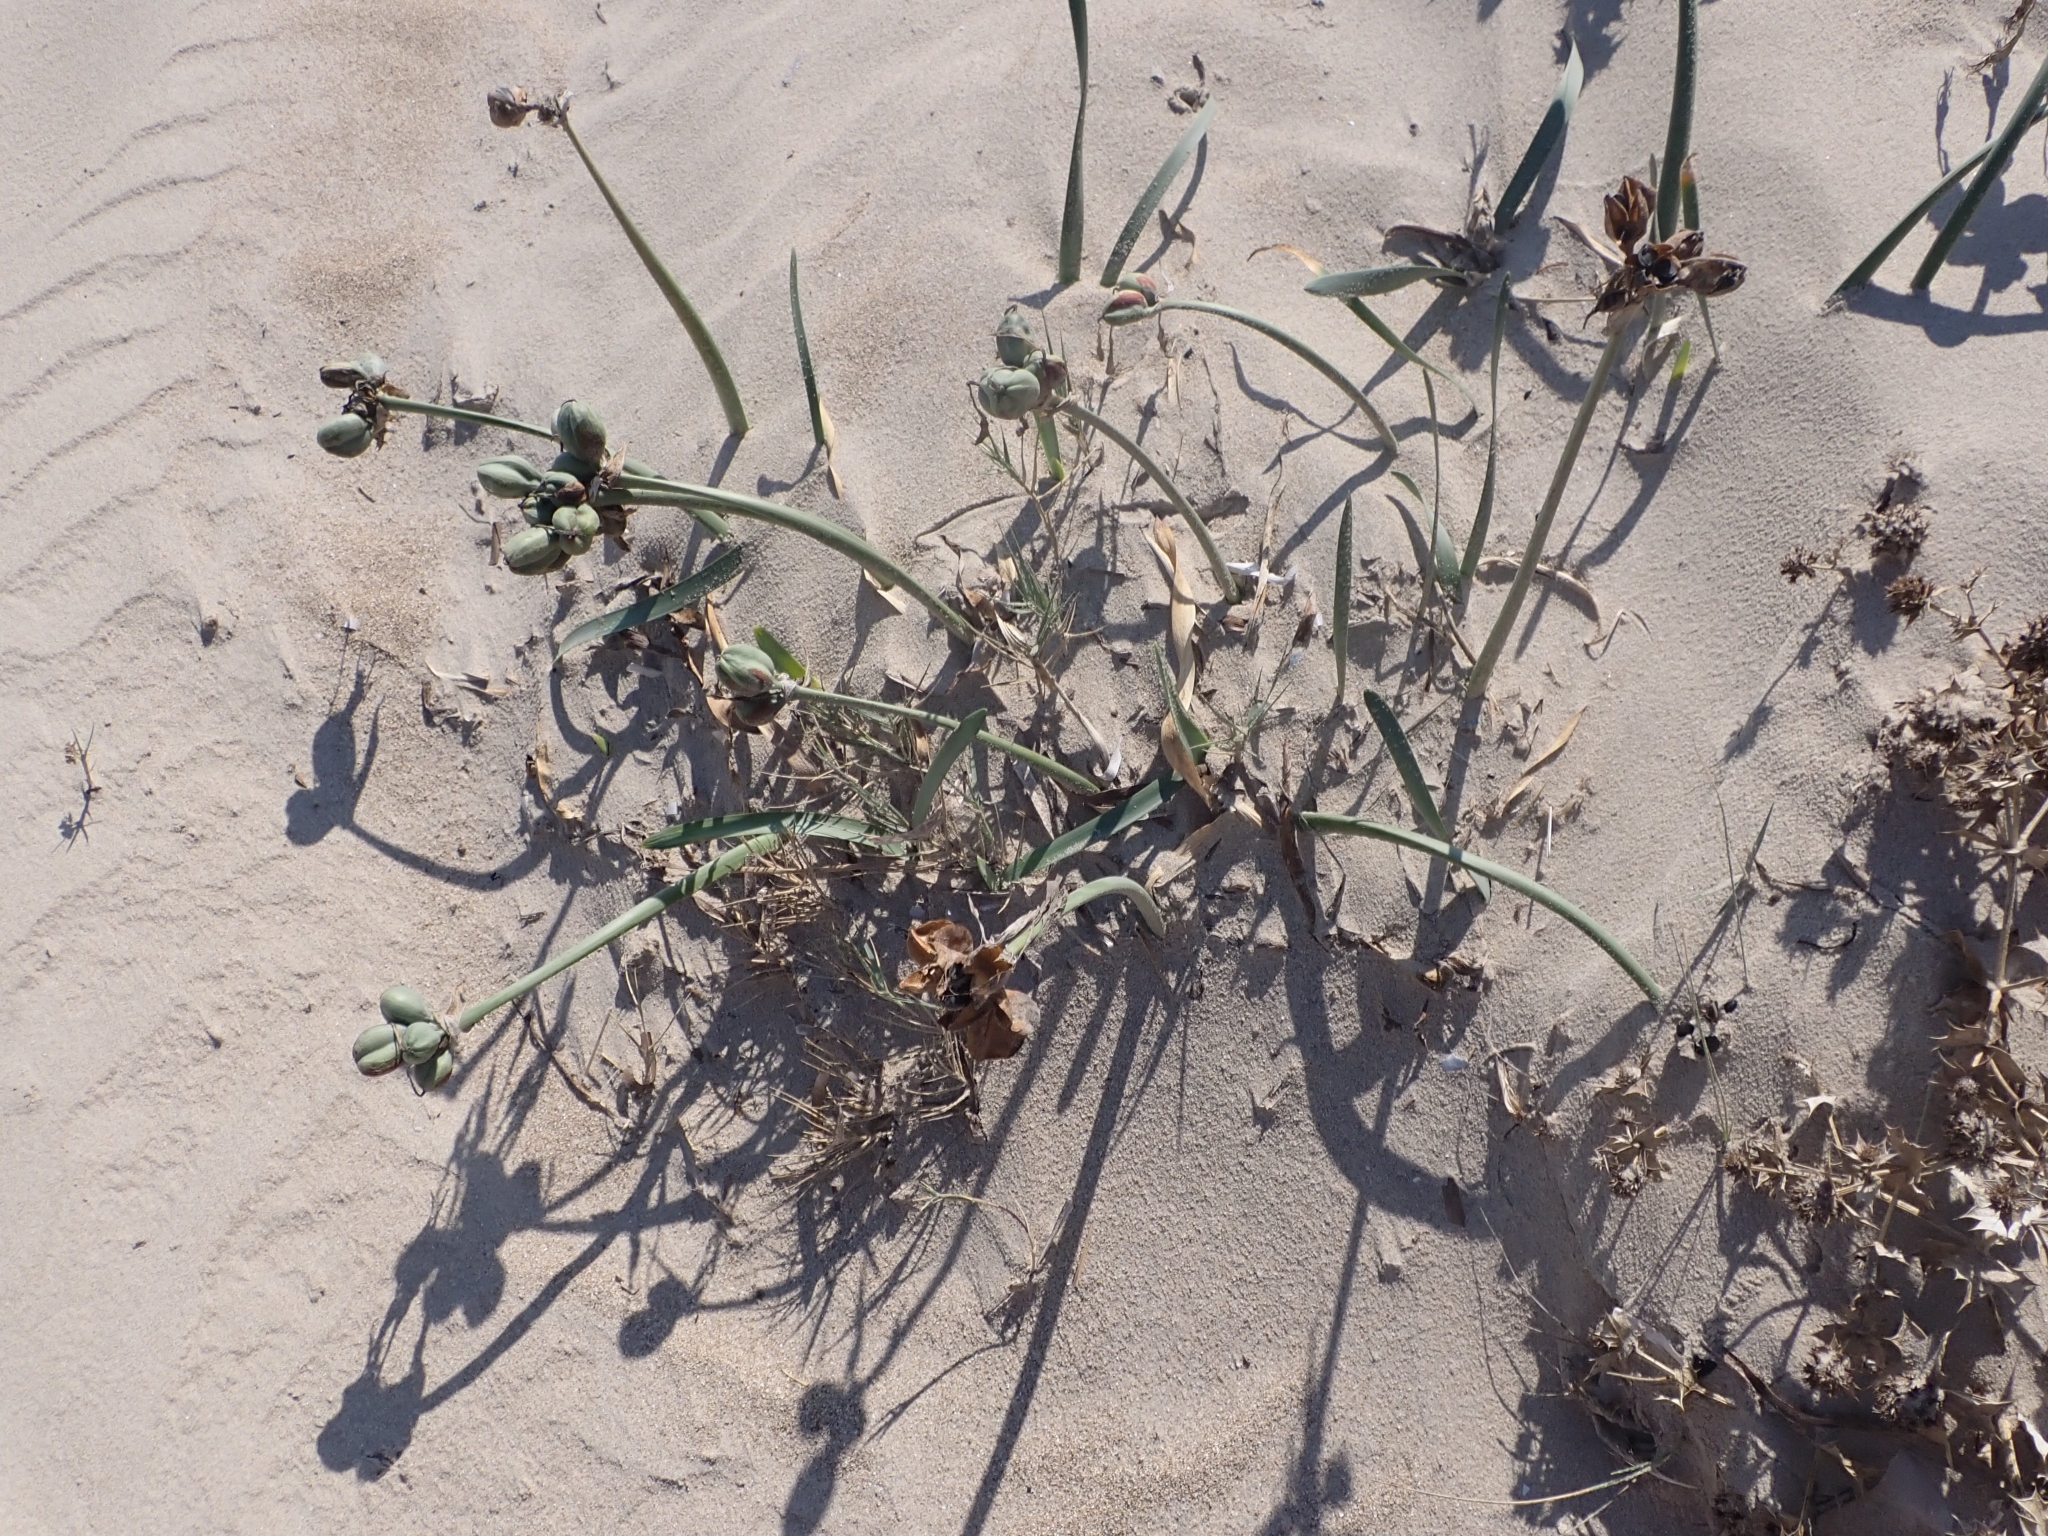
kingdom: Plantae
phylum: Tracheophyta
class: Liliopsida
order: Asparagales
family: Amaryllidaceae
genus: Pancratium
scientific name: Pancratium maritimum
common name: Sea-daffodil
